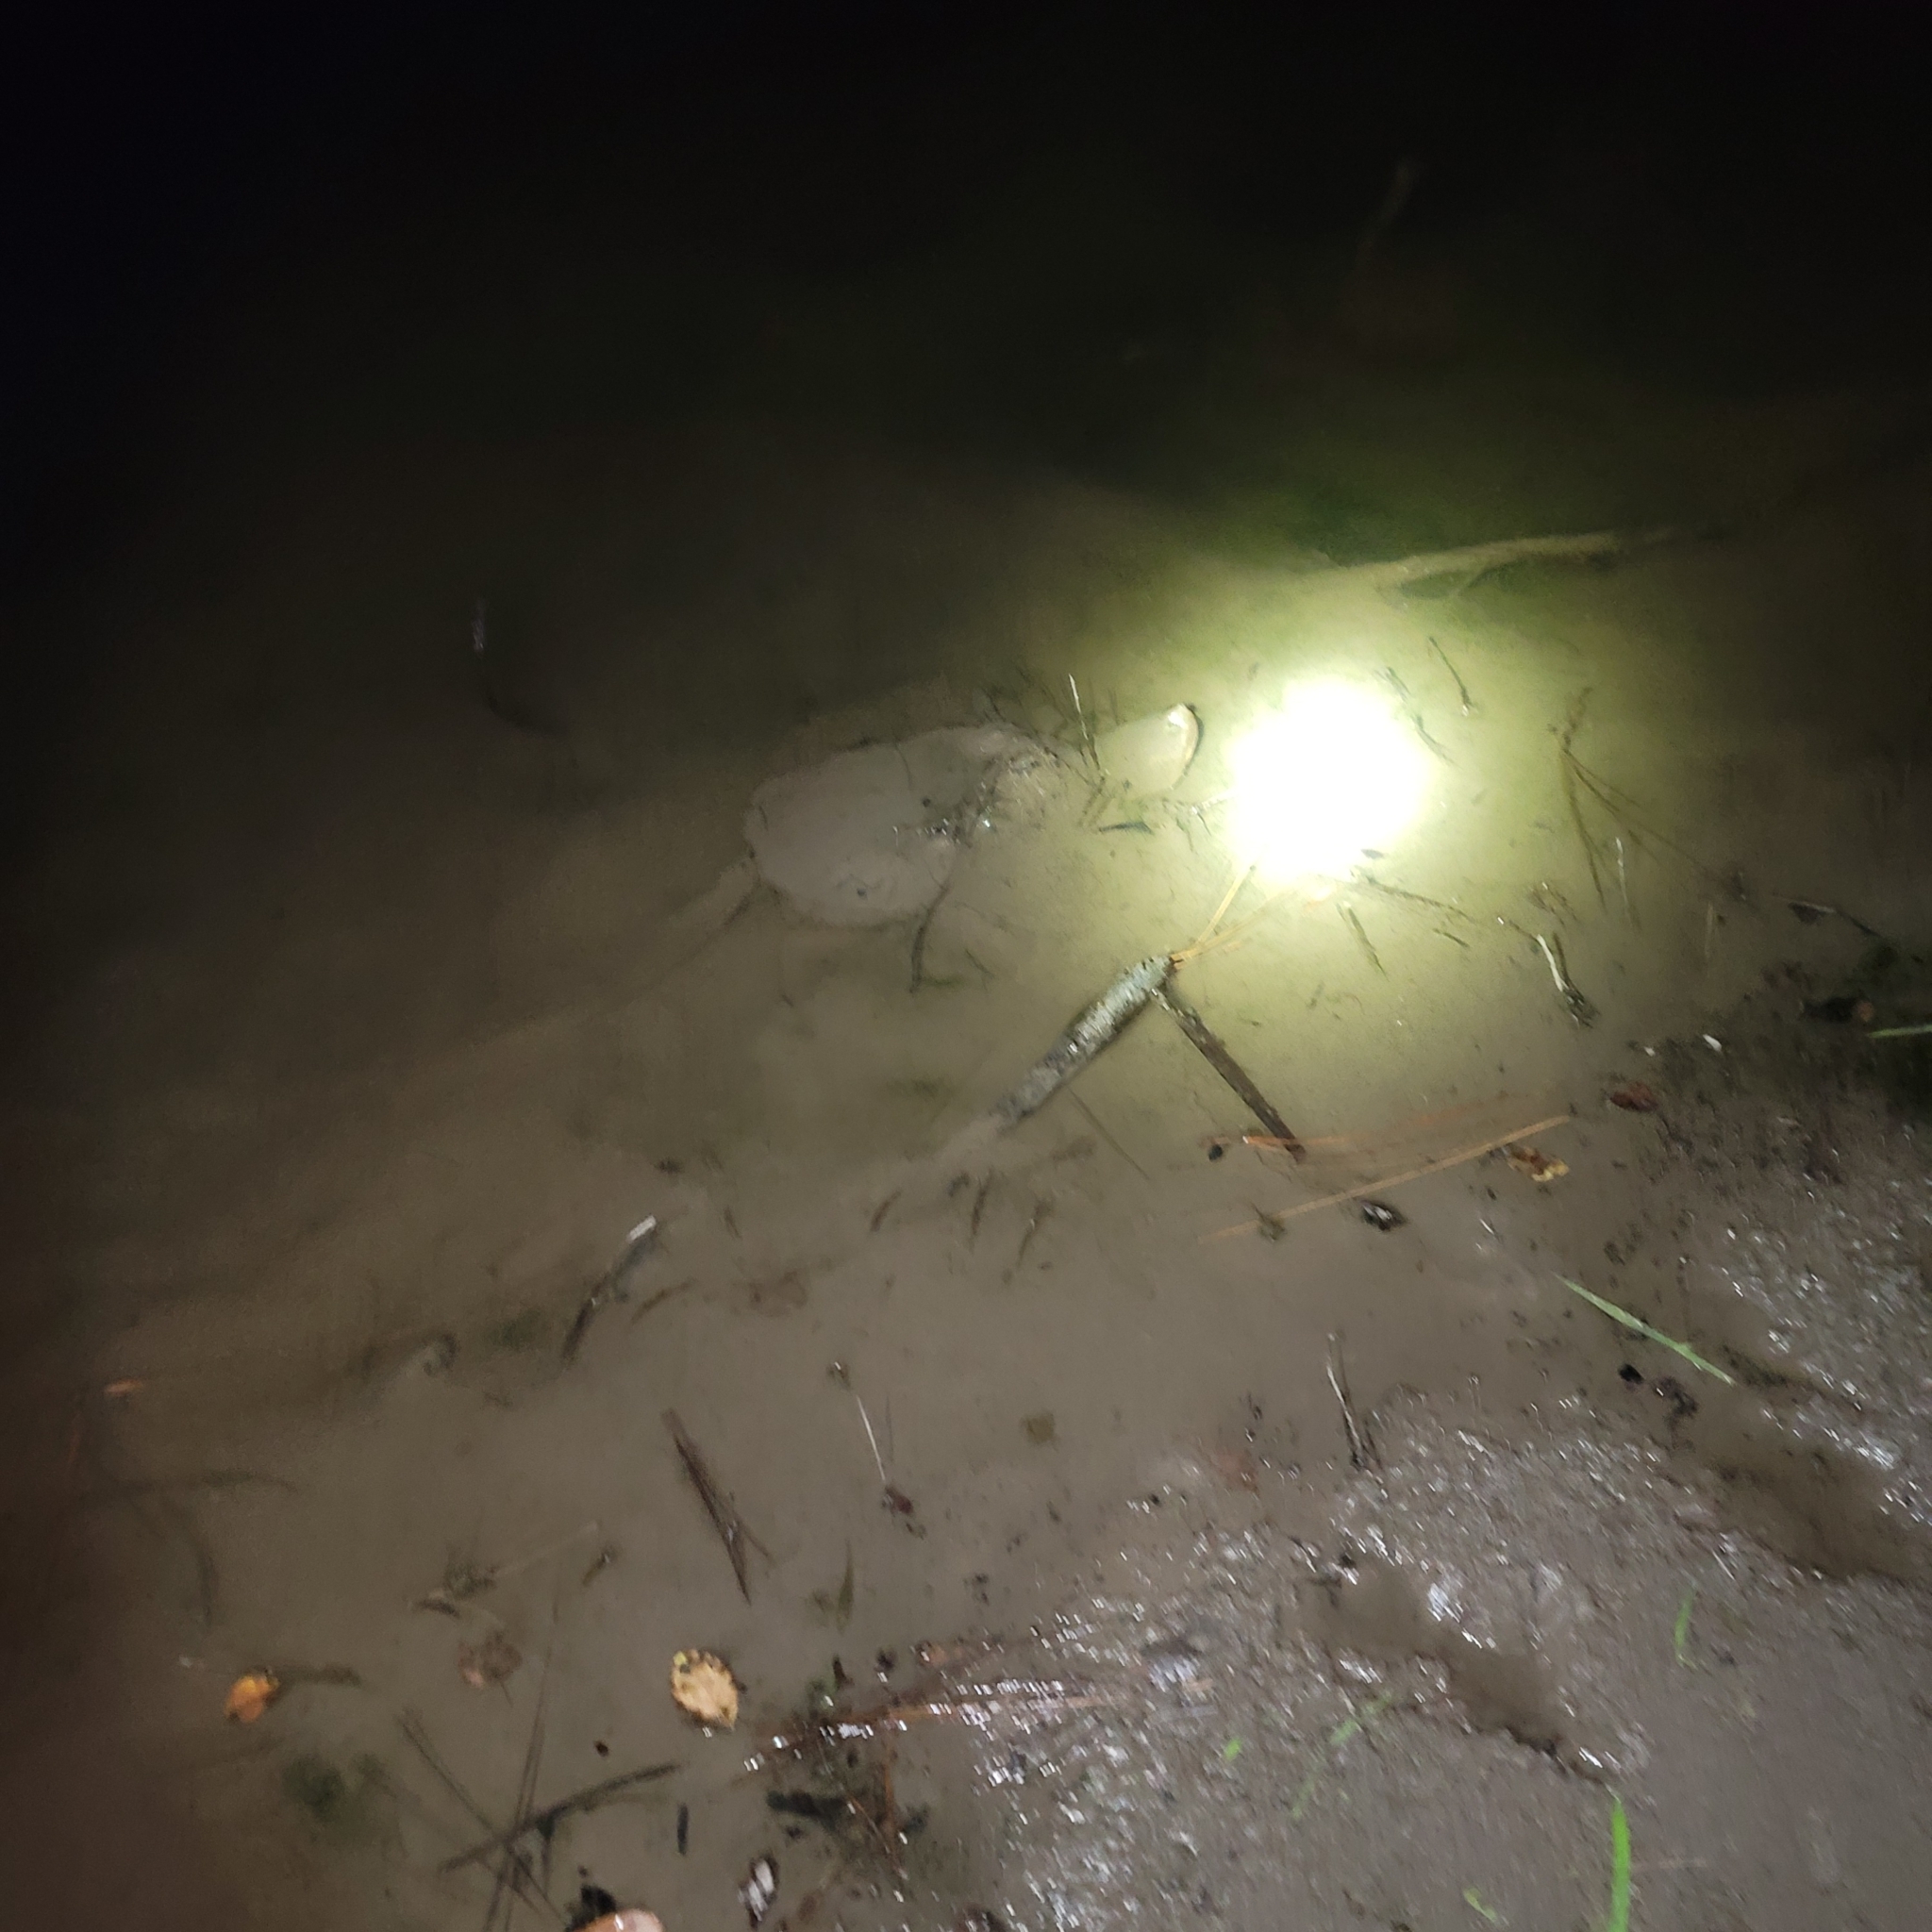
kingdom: Animalia
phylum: Chordata
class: Testudines
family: Chelydridae
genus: Chelydra
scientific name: Chelydra serpentina
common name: Common snapping turtle
